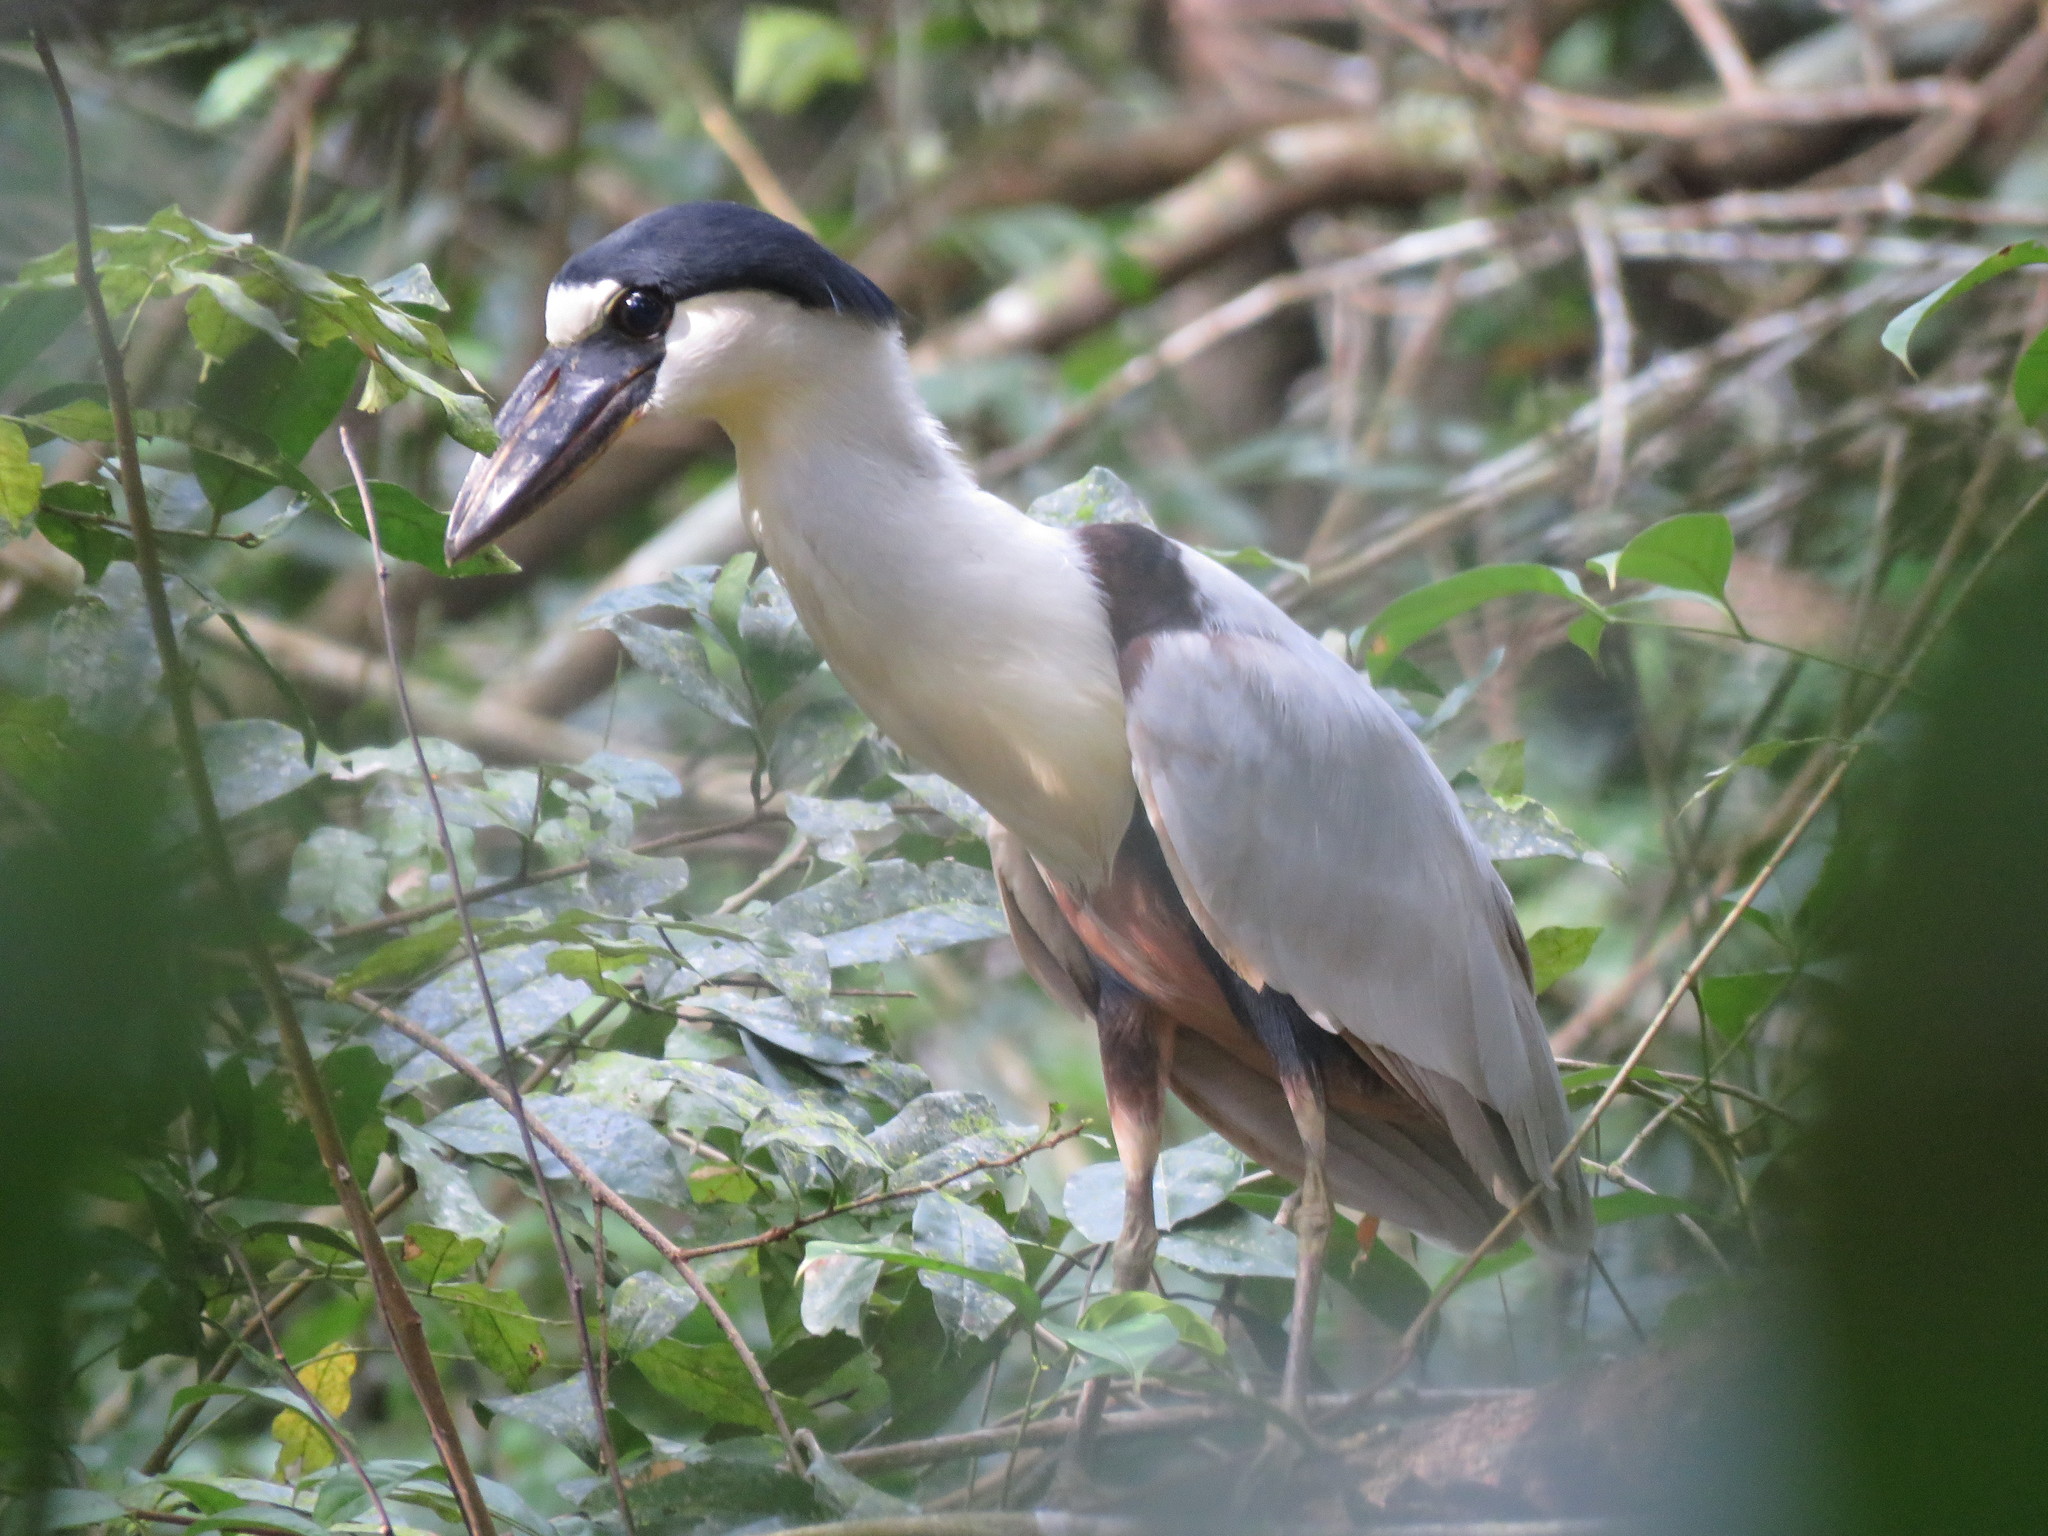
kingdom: Animalia
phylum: Chordata
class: Aves
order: Pelecaniformes
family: Ardeidae
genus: Cochlearius
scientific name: Cochlearius cochlearius
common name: Boat-billed heron
